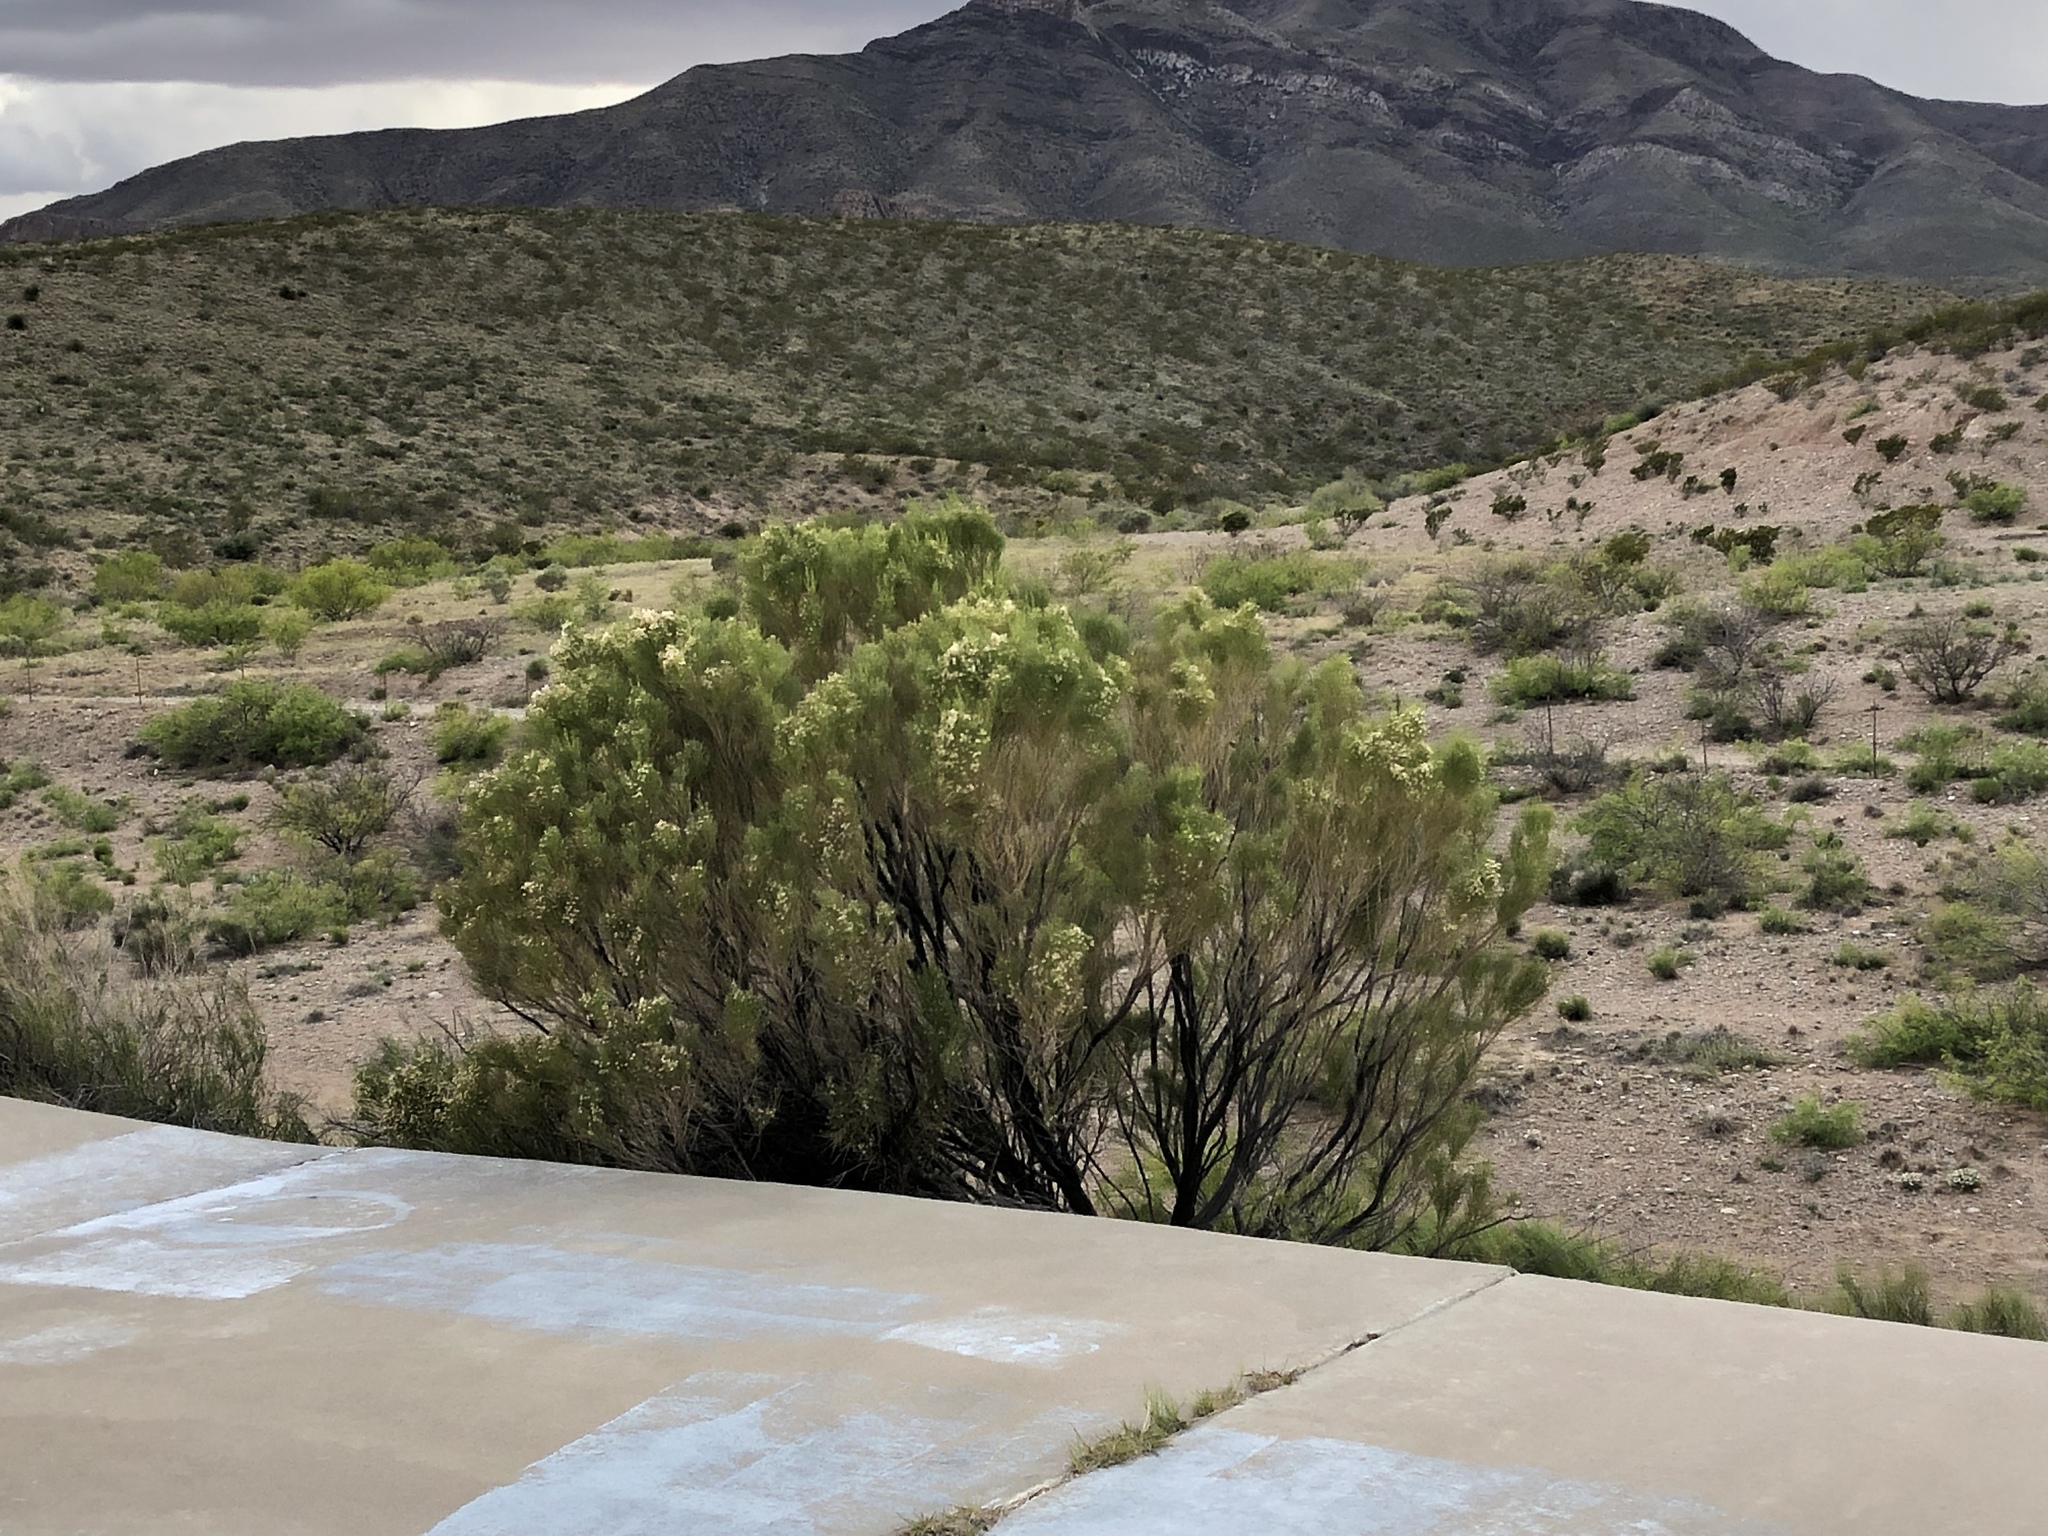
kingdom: Plantae
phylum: Tracheophyta
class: Magnoliopsida
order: Asterales
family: Asteraceae
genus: Baccharis
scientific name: Baccharis sarothroides
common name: Desert-broom
